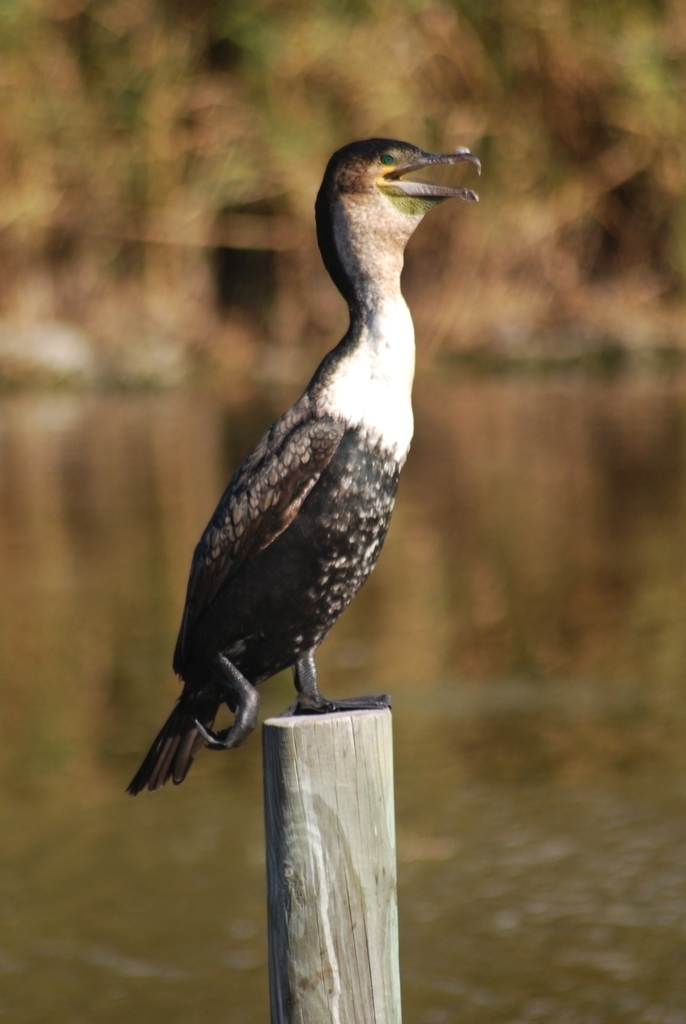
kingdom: Animalia
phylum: Chordata
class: Aves
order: Suliformes
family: Phalacrocoracidae
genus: Phalacrocorax
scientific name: Phalacrocorax carbo
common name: Great cormorant
